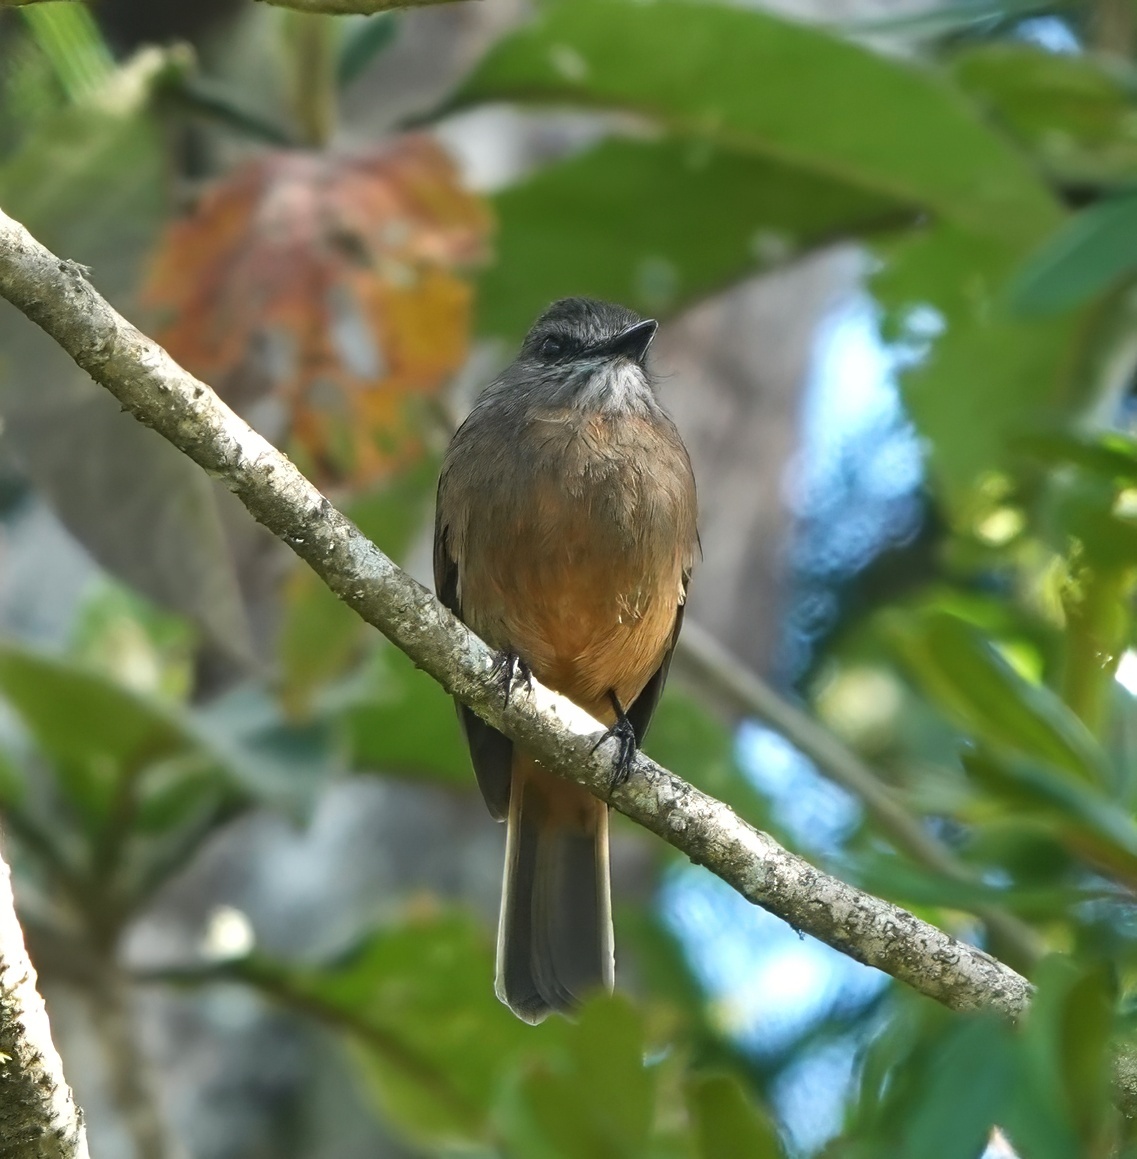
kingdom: Animalia
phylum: Chordata
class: Aves
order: Passeriformes
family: Tyrannidae
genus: Myiotheretes
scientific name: Myiotheretes pernix
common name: Santa marta bush tyrant
